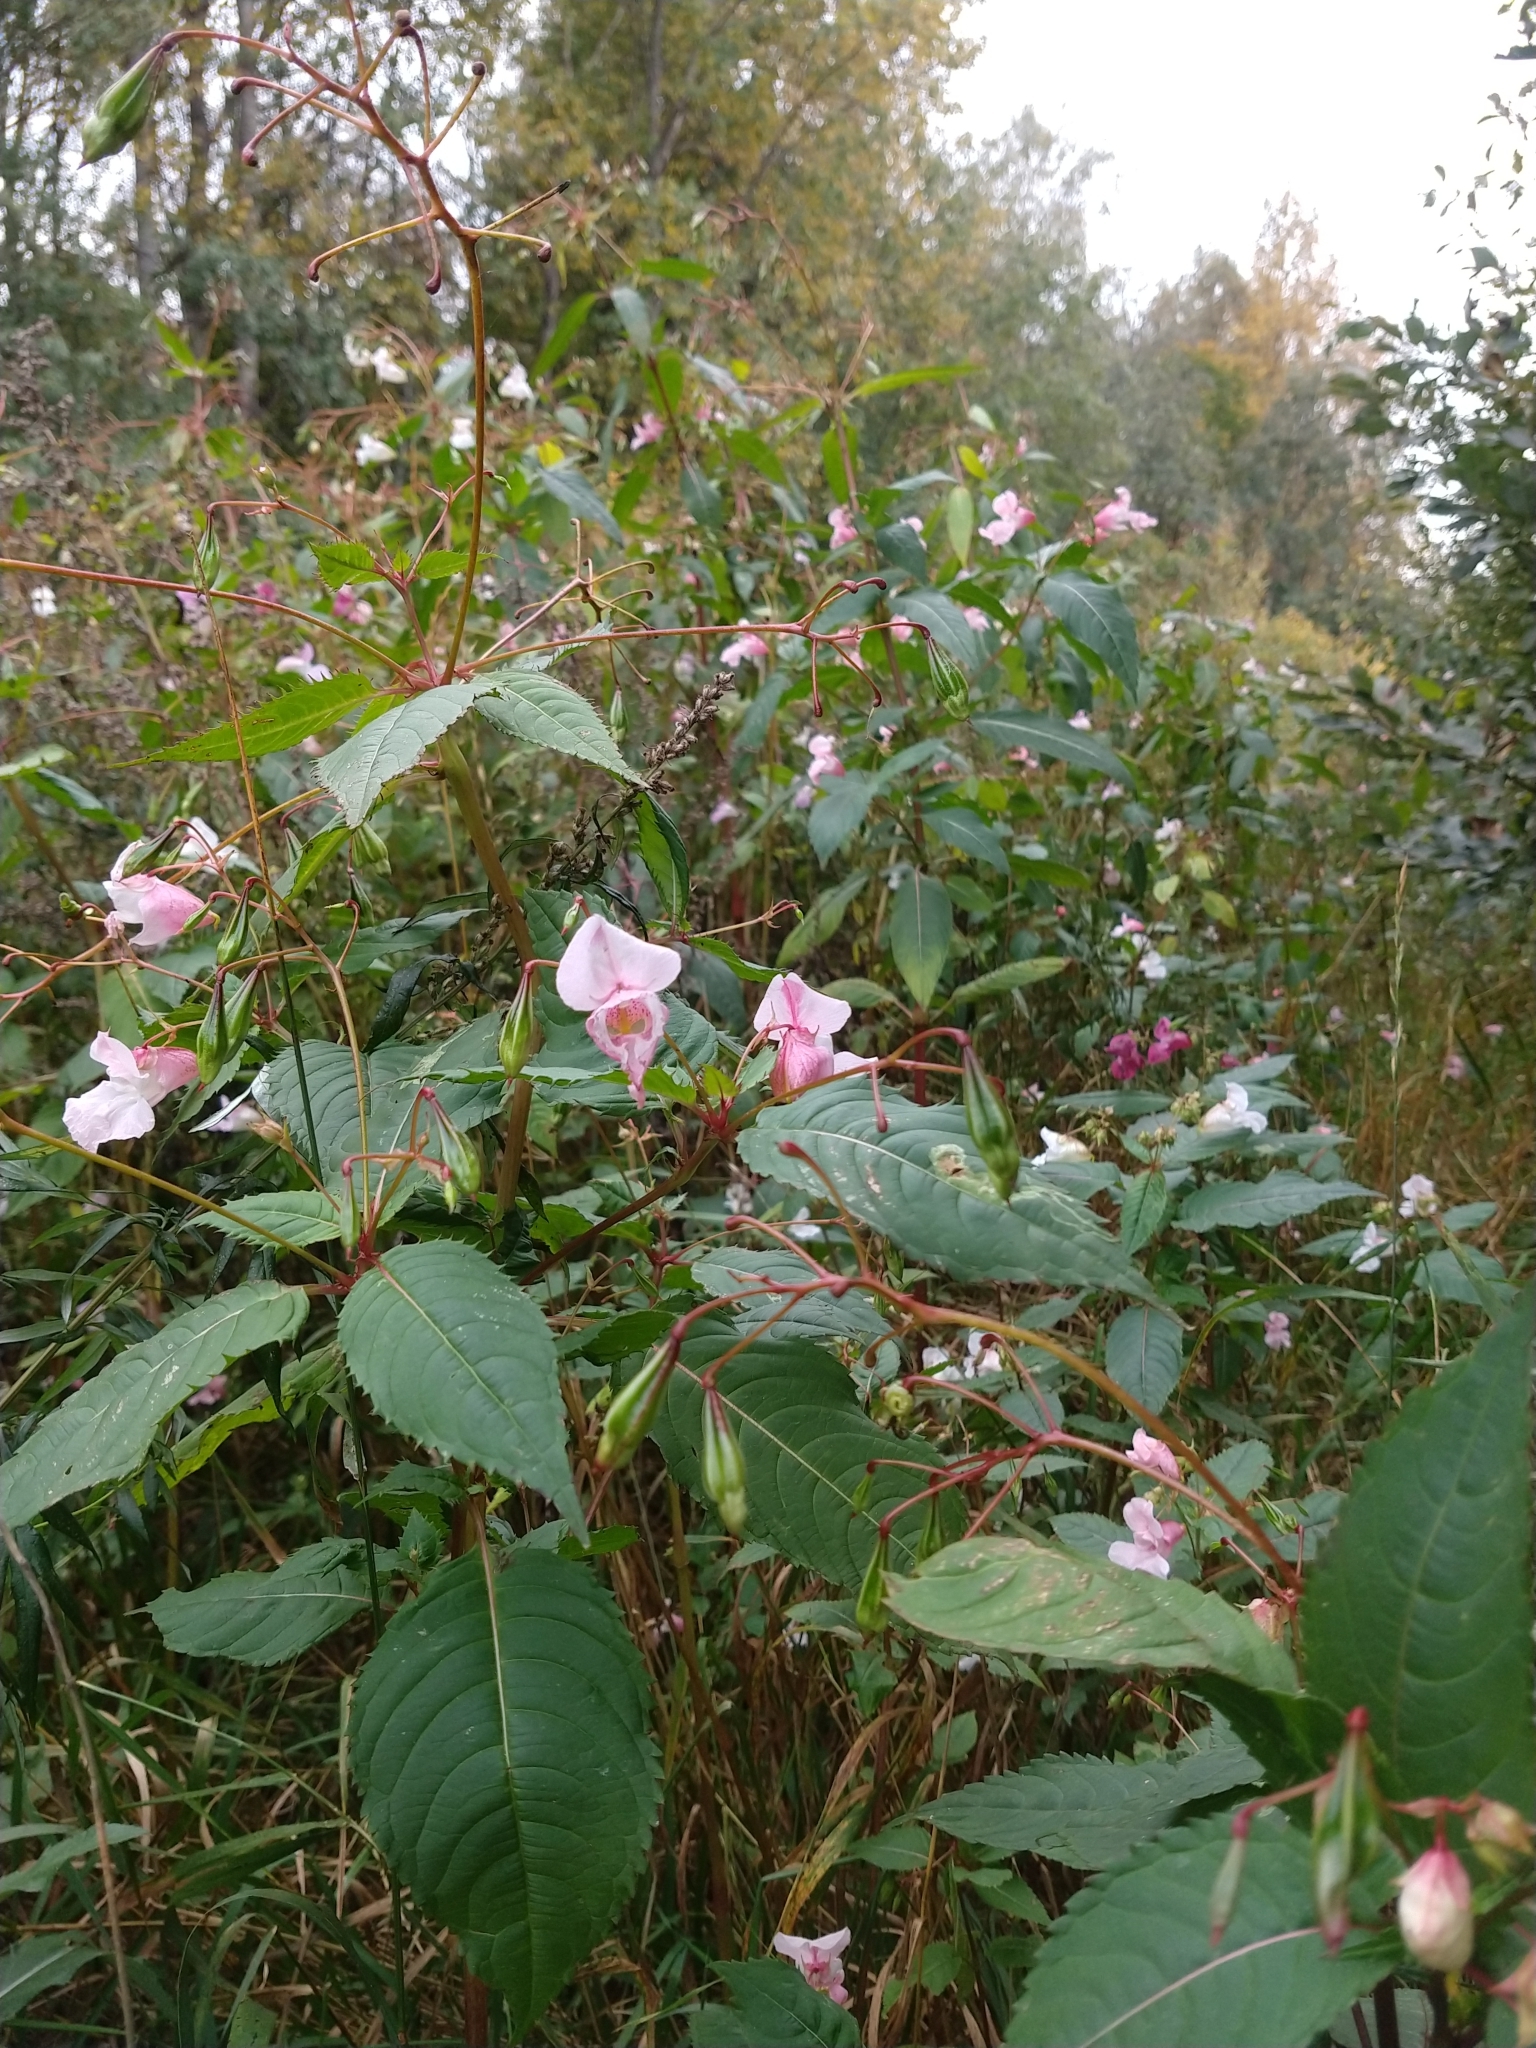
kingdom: Plantae
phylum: Tracheophyta
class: Magnoliopsida
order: Ericales
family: Balsaminaceae
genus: Impatiens
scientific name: Impatiens glandulifera
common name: Himalayan balsam
